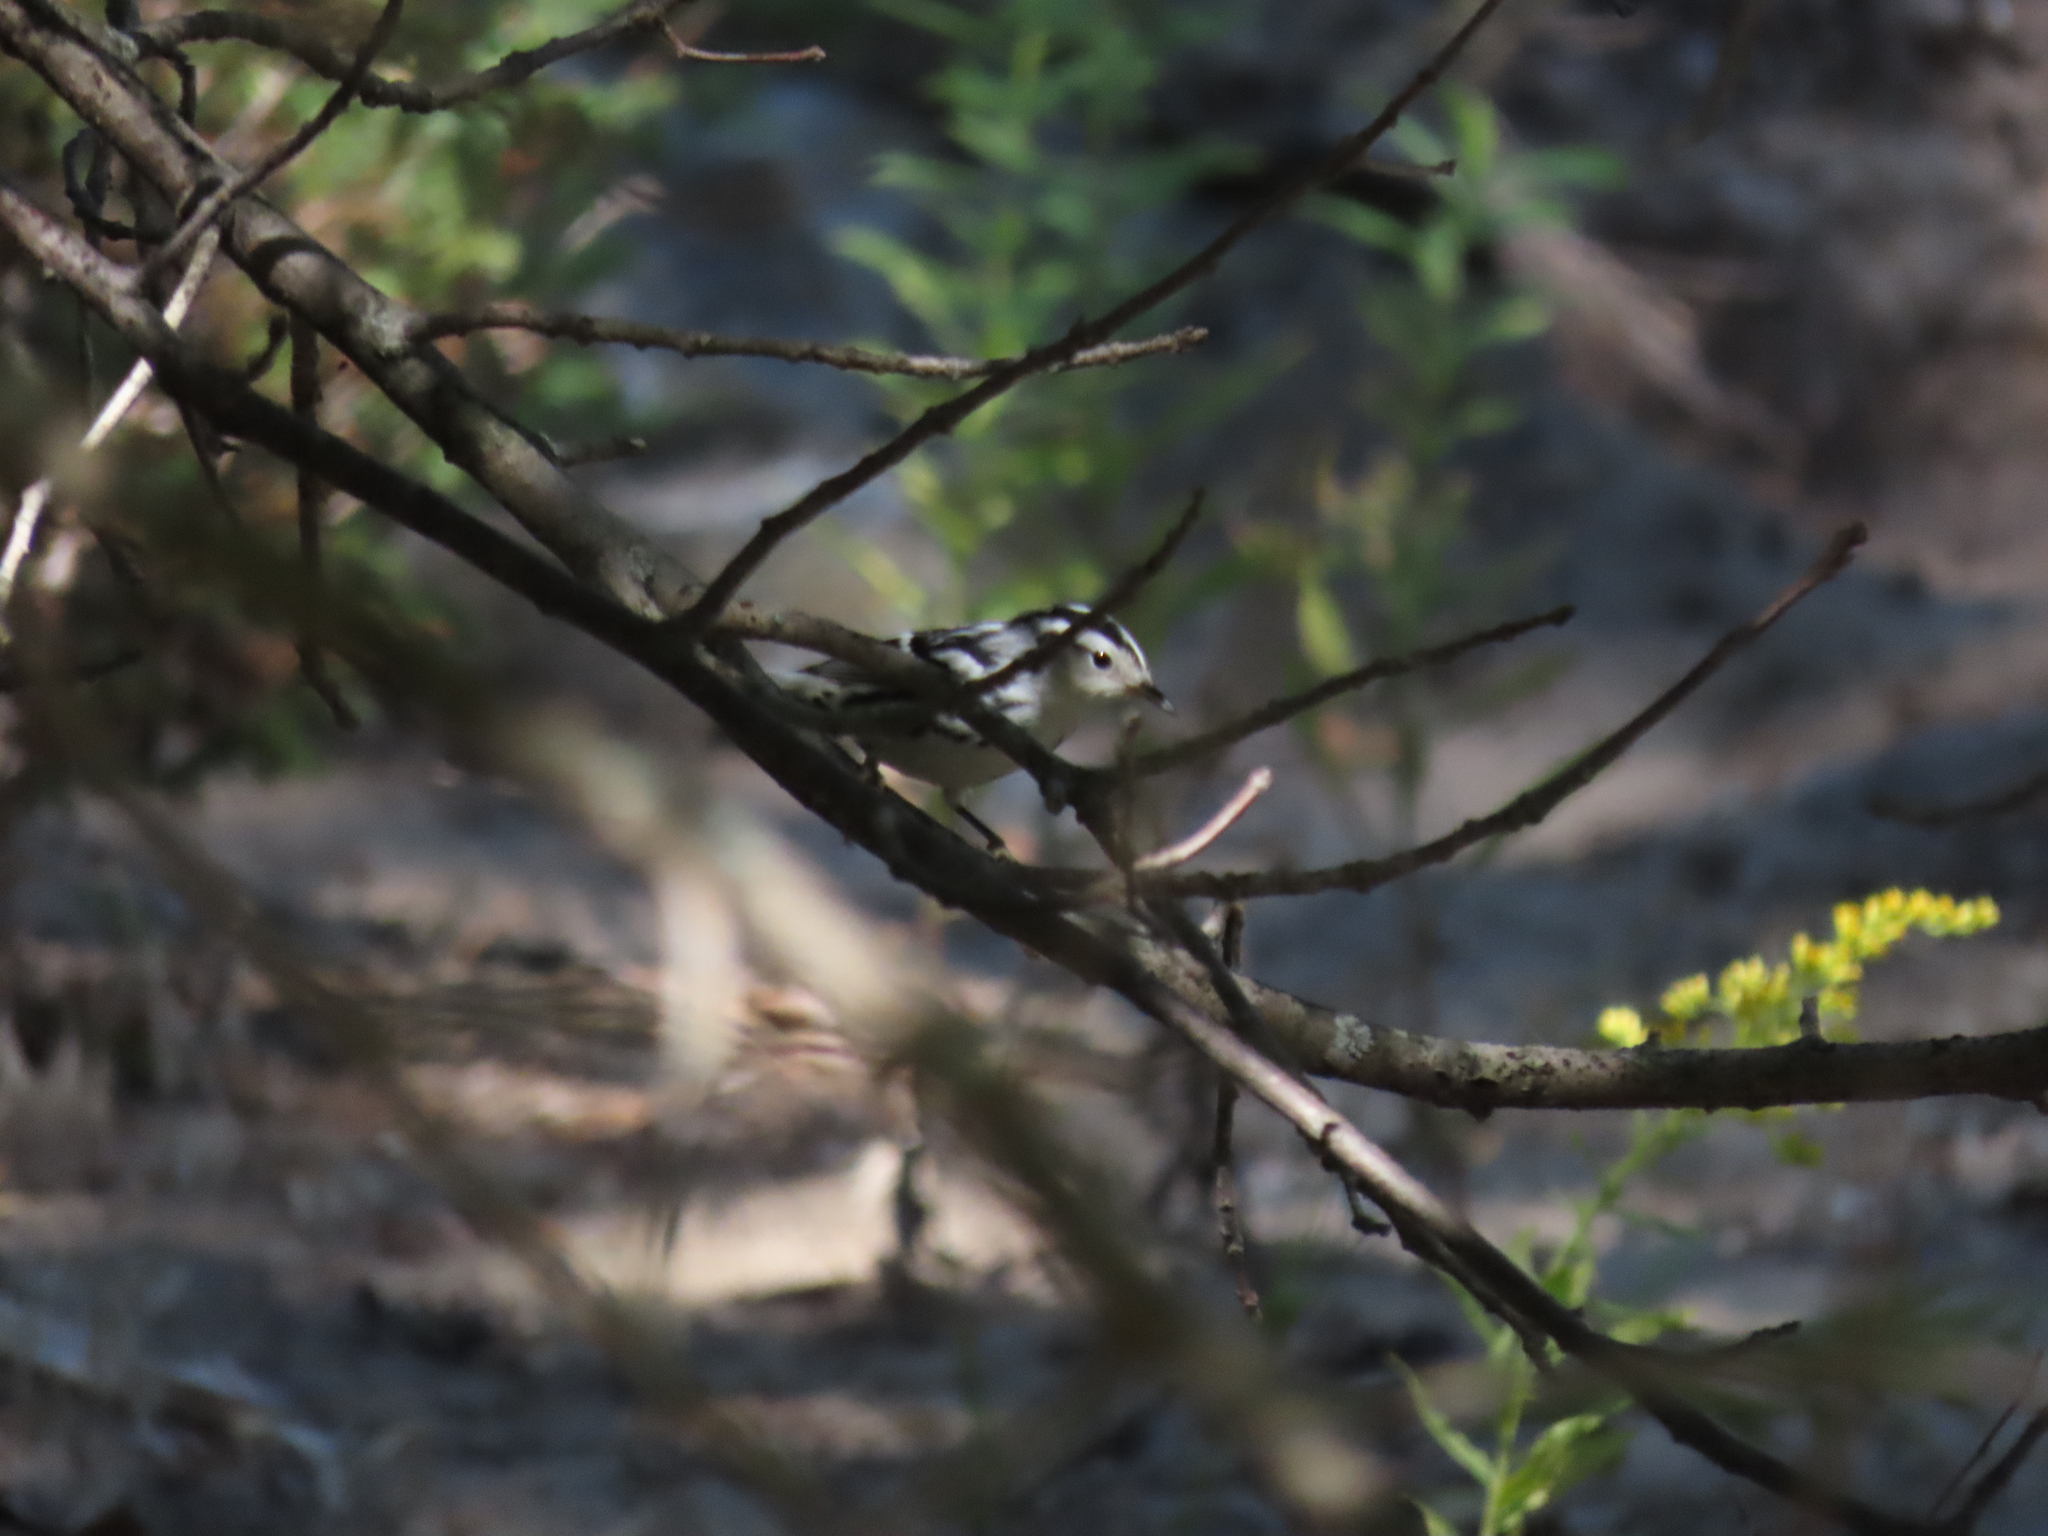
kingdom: Animalia
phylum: Chordata
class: Aves
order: Passeriformes
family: Parulidae
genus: Mniotilta
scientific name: Mniotilta varia
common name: Black-and-white warbler
